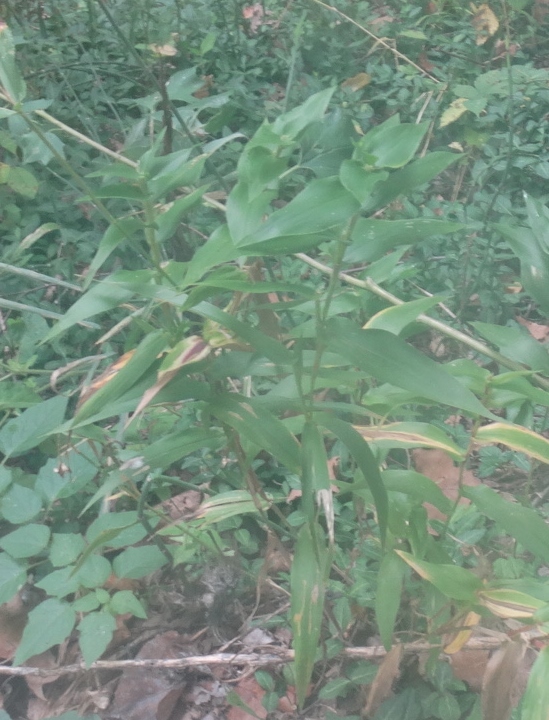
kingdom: Plantae
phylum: Tracheophyta
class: Liliopsida
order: Poales
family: Poaceae
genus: Dichanthelium
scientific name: Dichanthelium clandestinum
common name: Deer-tongue grass
